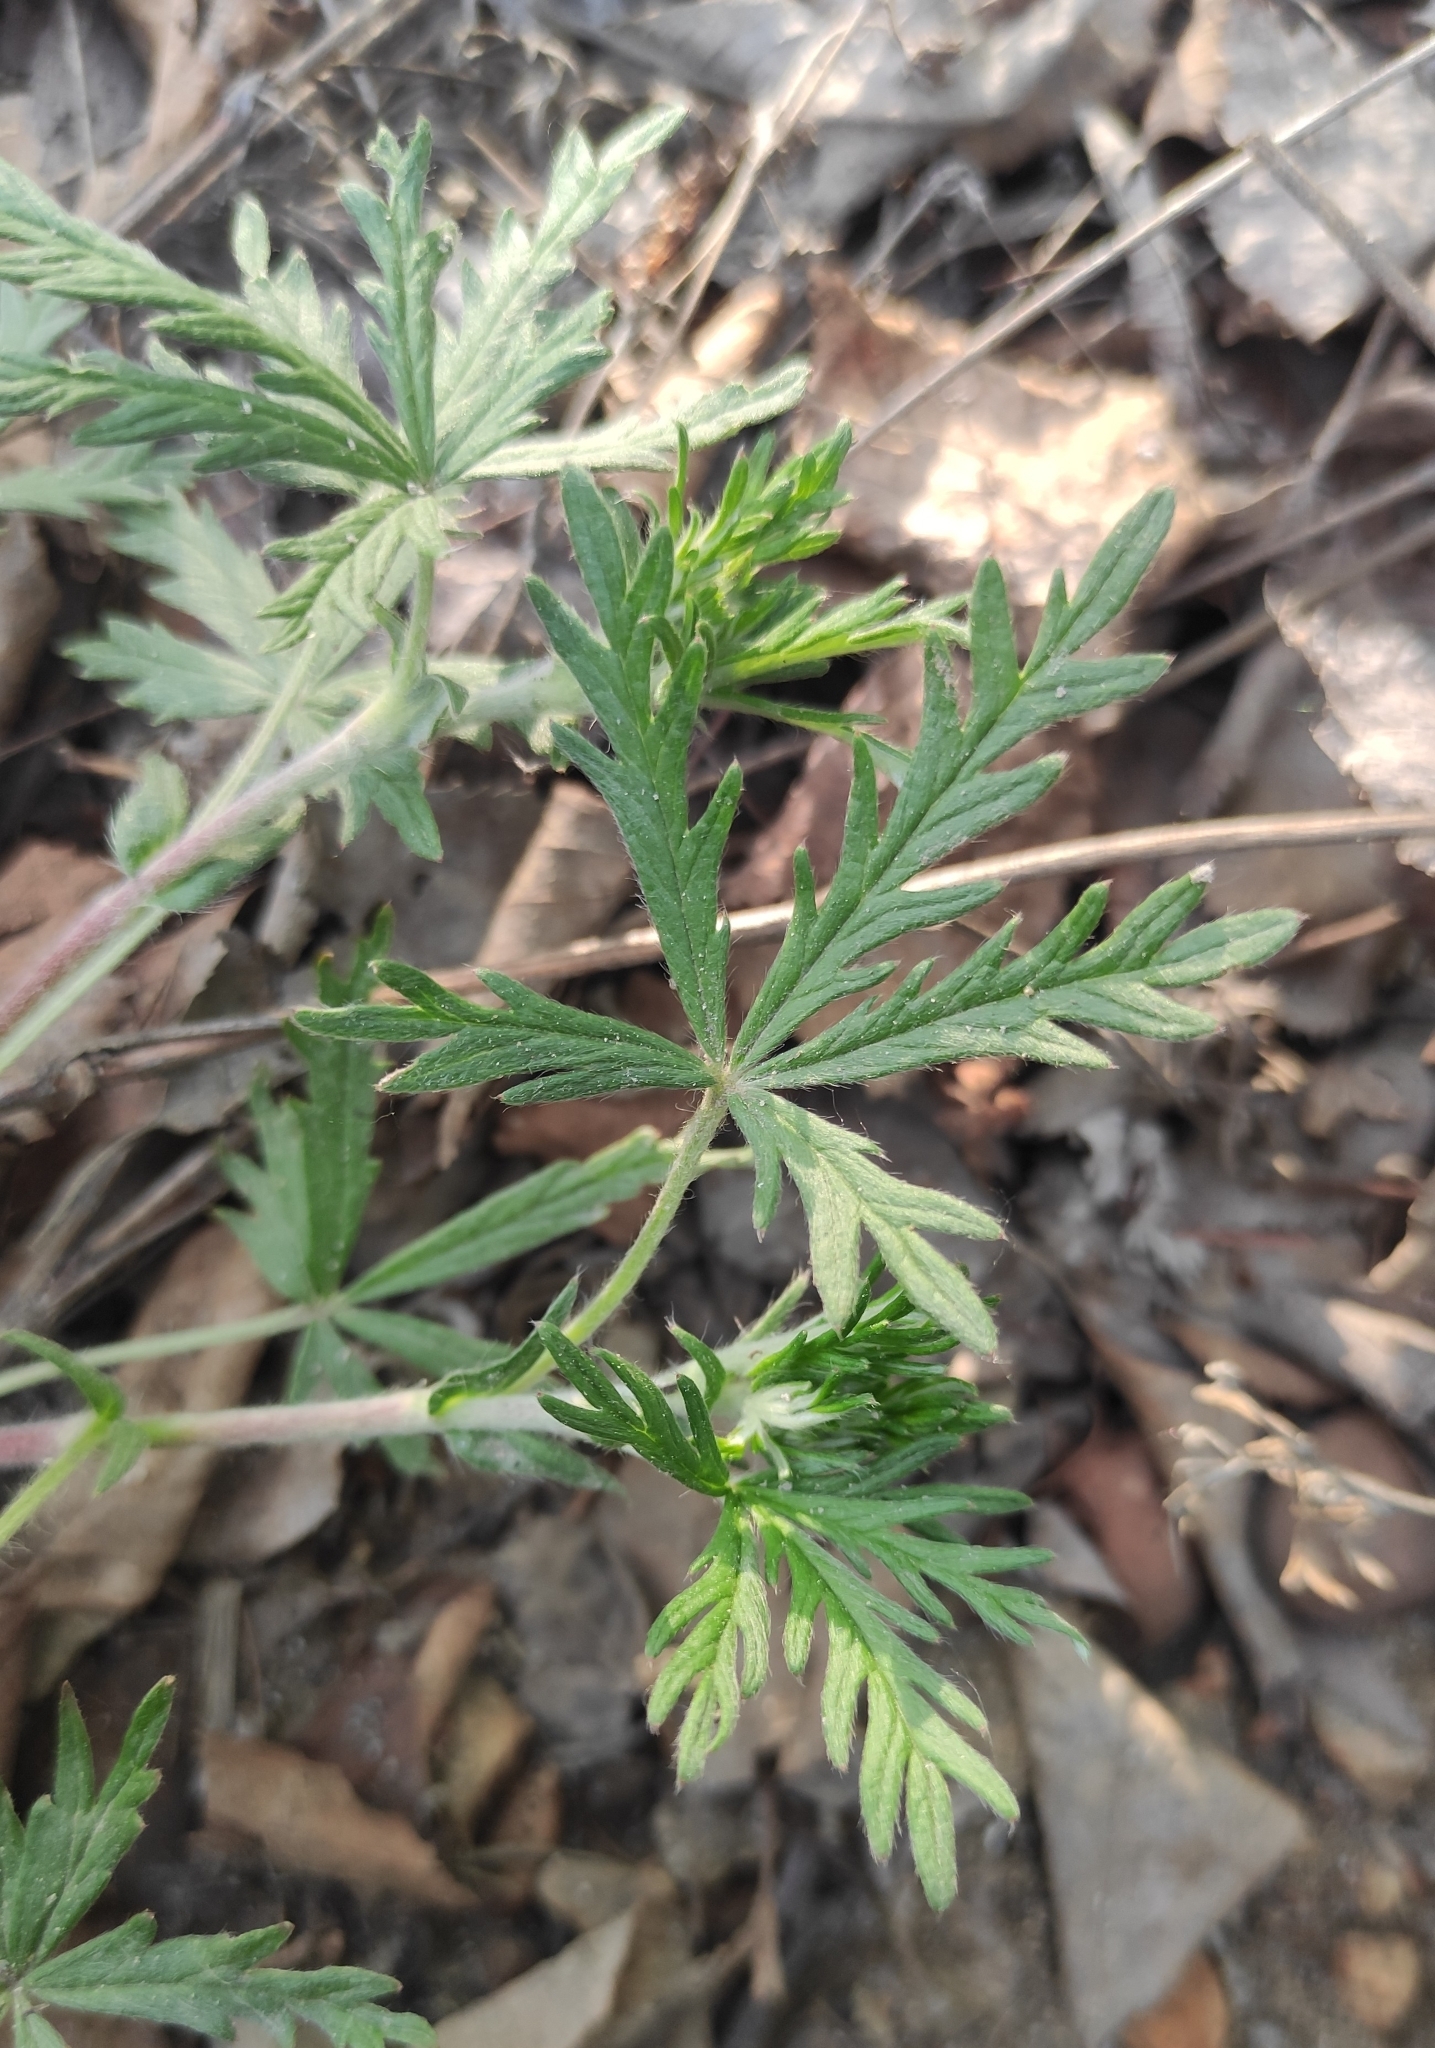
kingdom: Plantae
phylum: Tracheophyta
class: Magnoliopsida
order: Rosales
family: Rosaceae
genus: Potentilla
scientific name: Potentilla argentea
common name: Hoary cinquefoil
